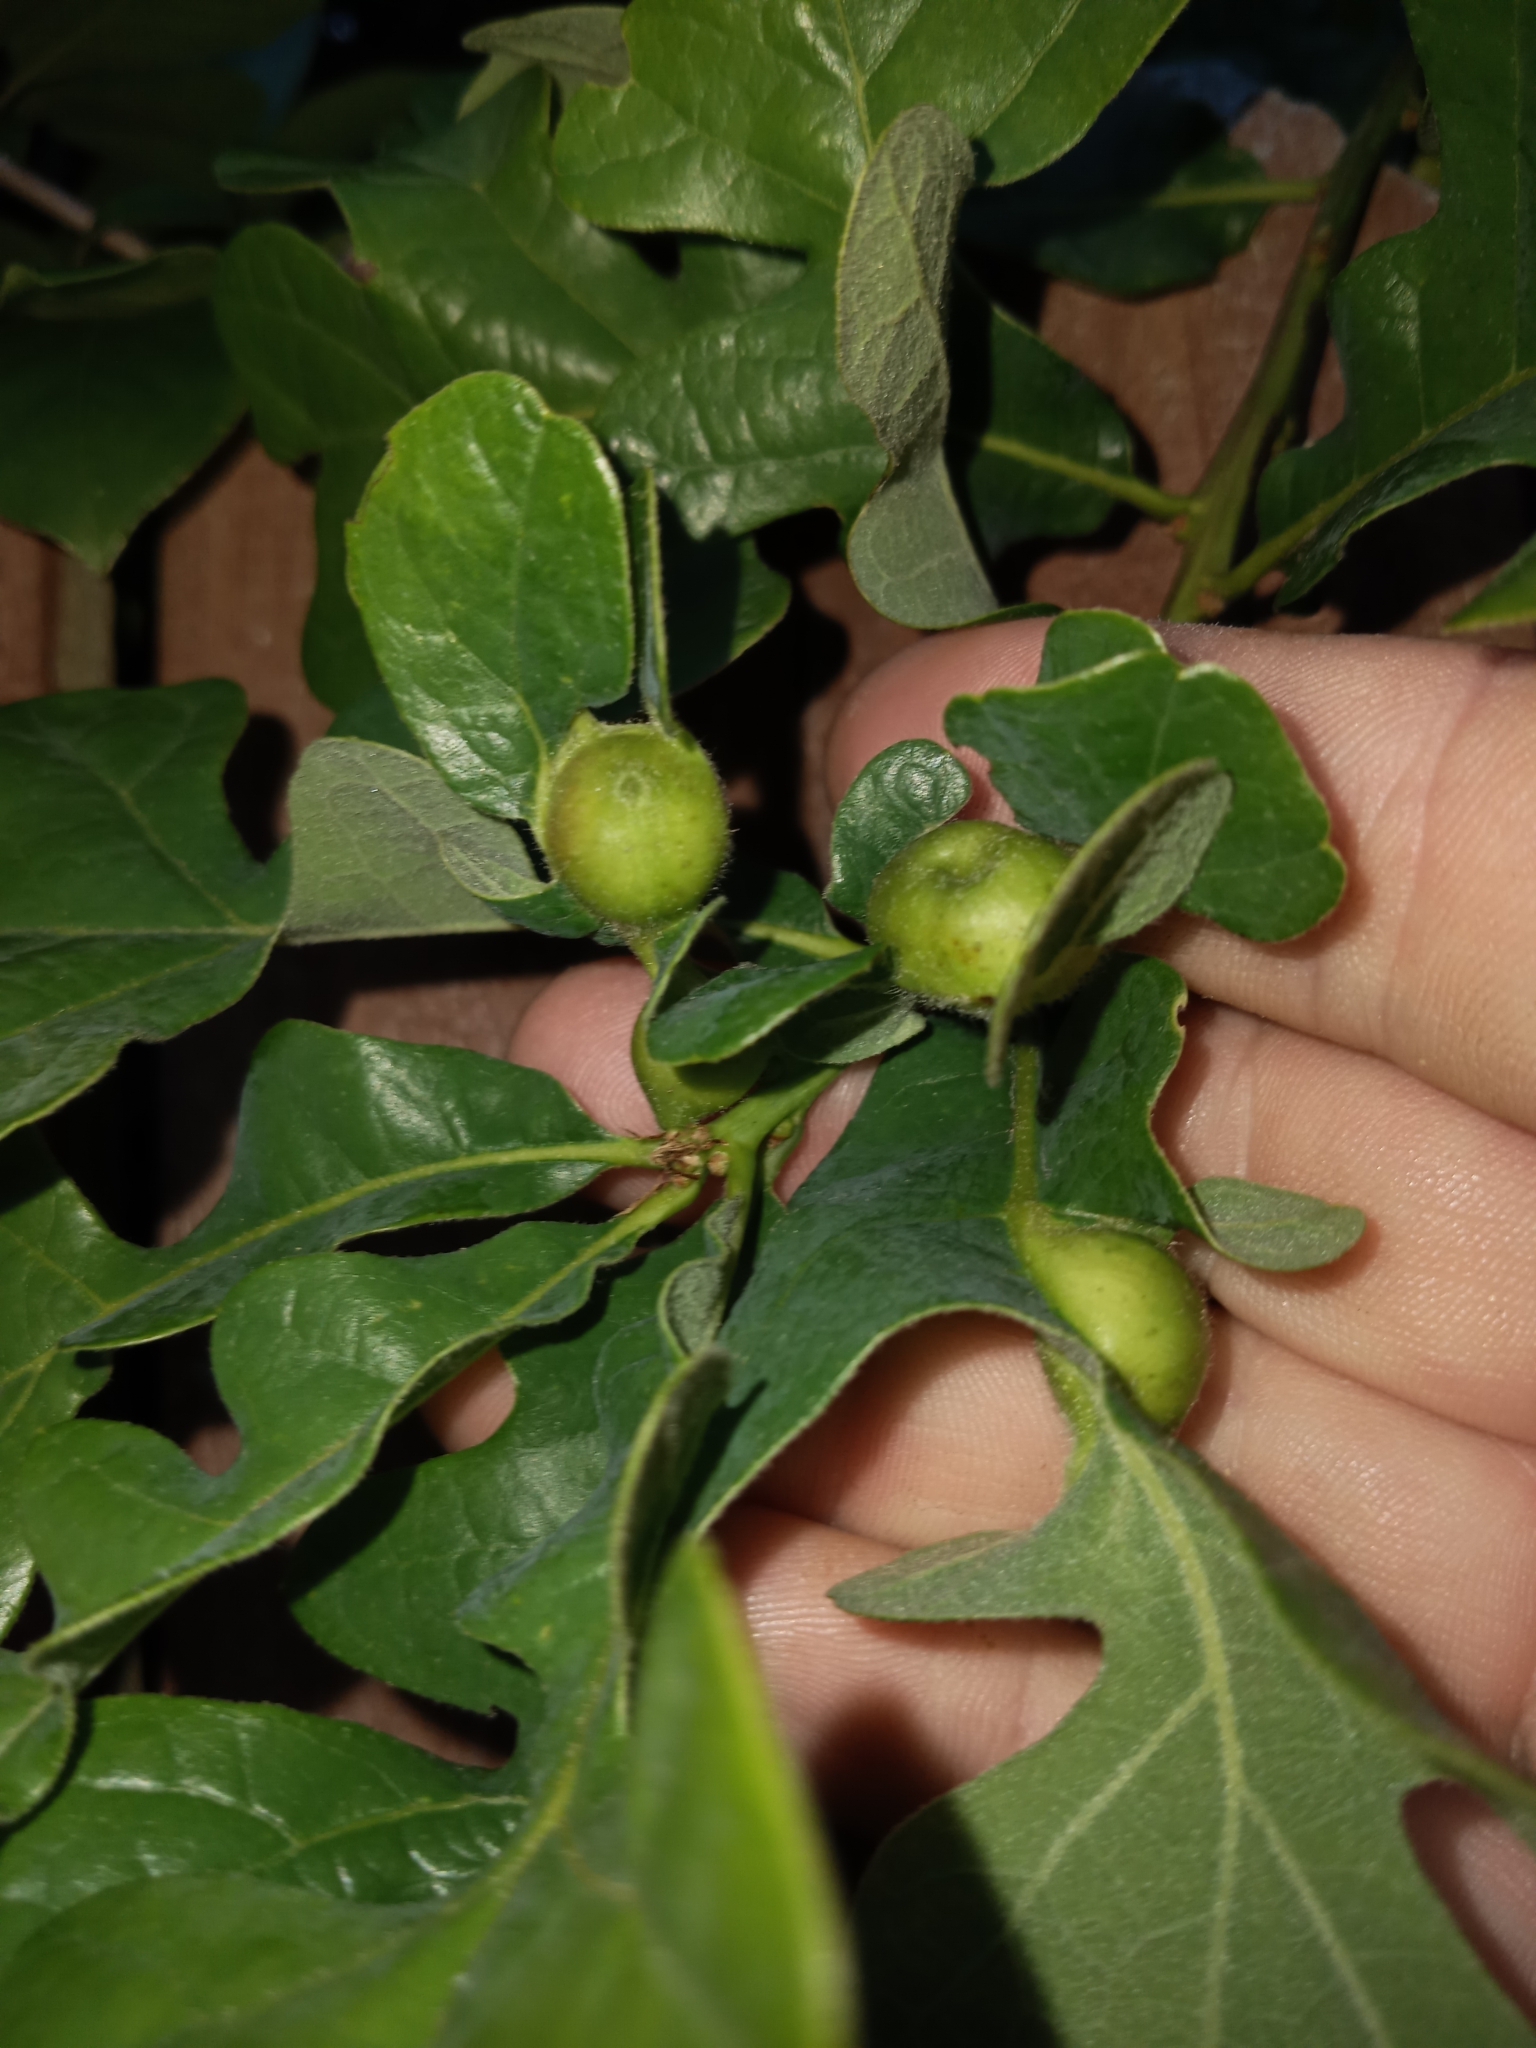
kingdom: Animalia
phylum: Arthropoda
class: Insecta
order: Hymenoptera
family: Cynipidae
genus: Andricus
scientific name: Andricus
